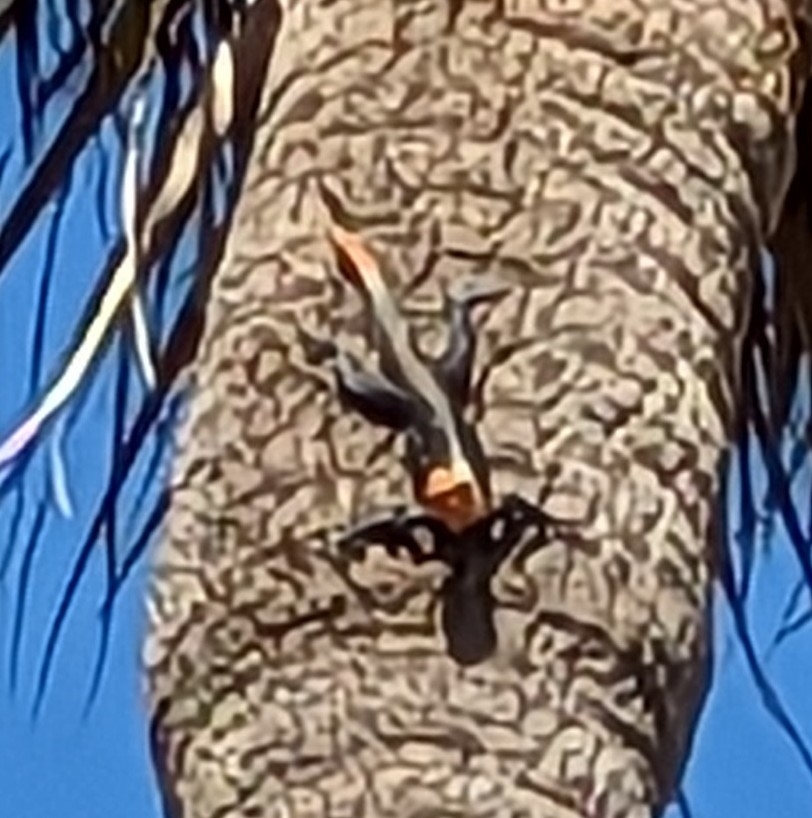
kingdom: Animalia
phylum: Chordata
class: Squamata
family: Agamidae
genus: Agama
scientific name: Agama picticauda
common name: Red-headed agama
